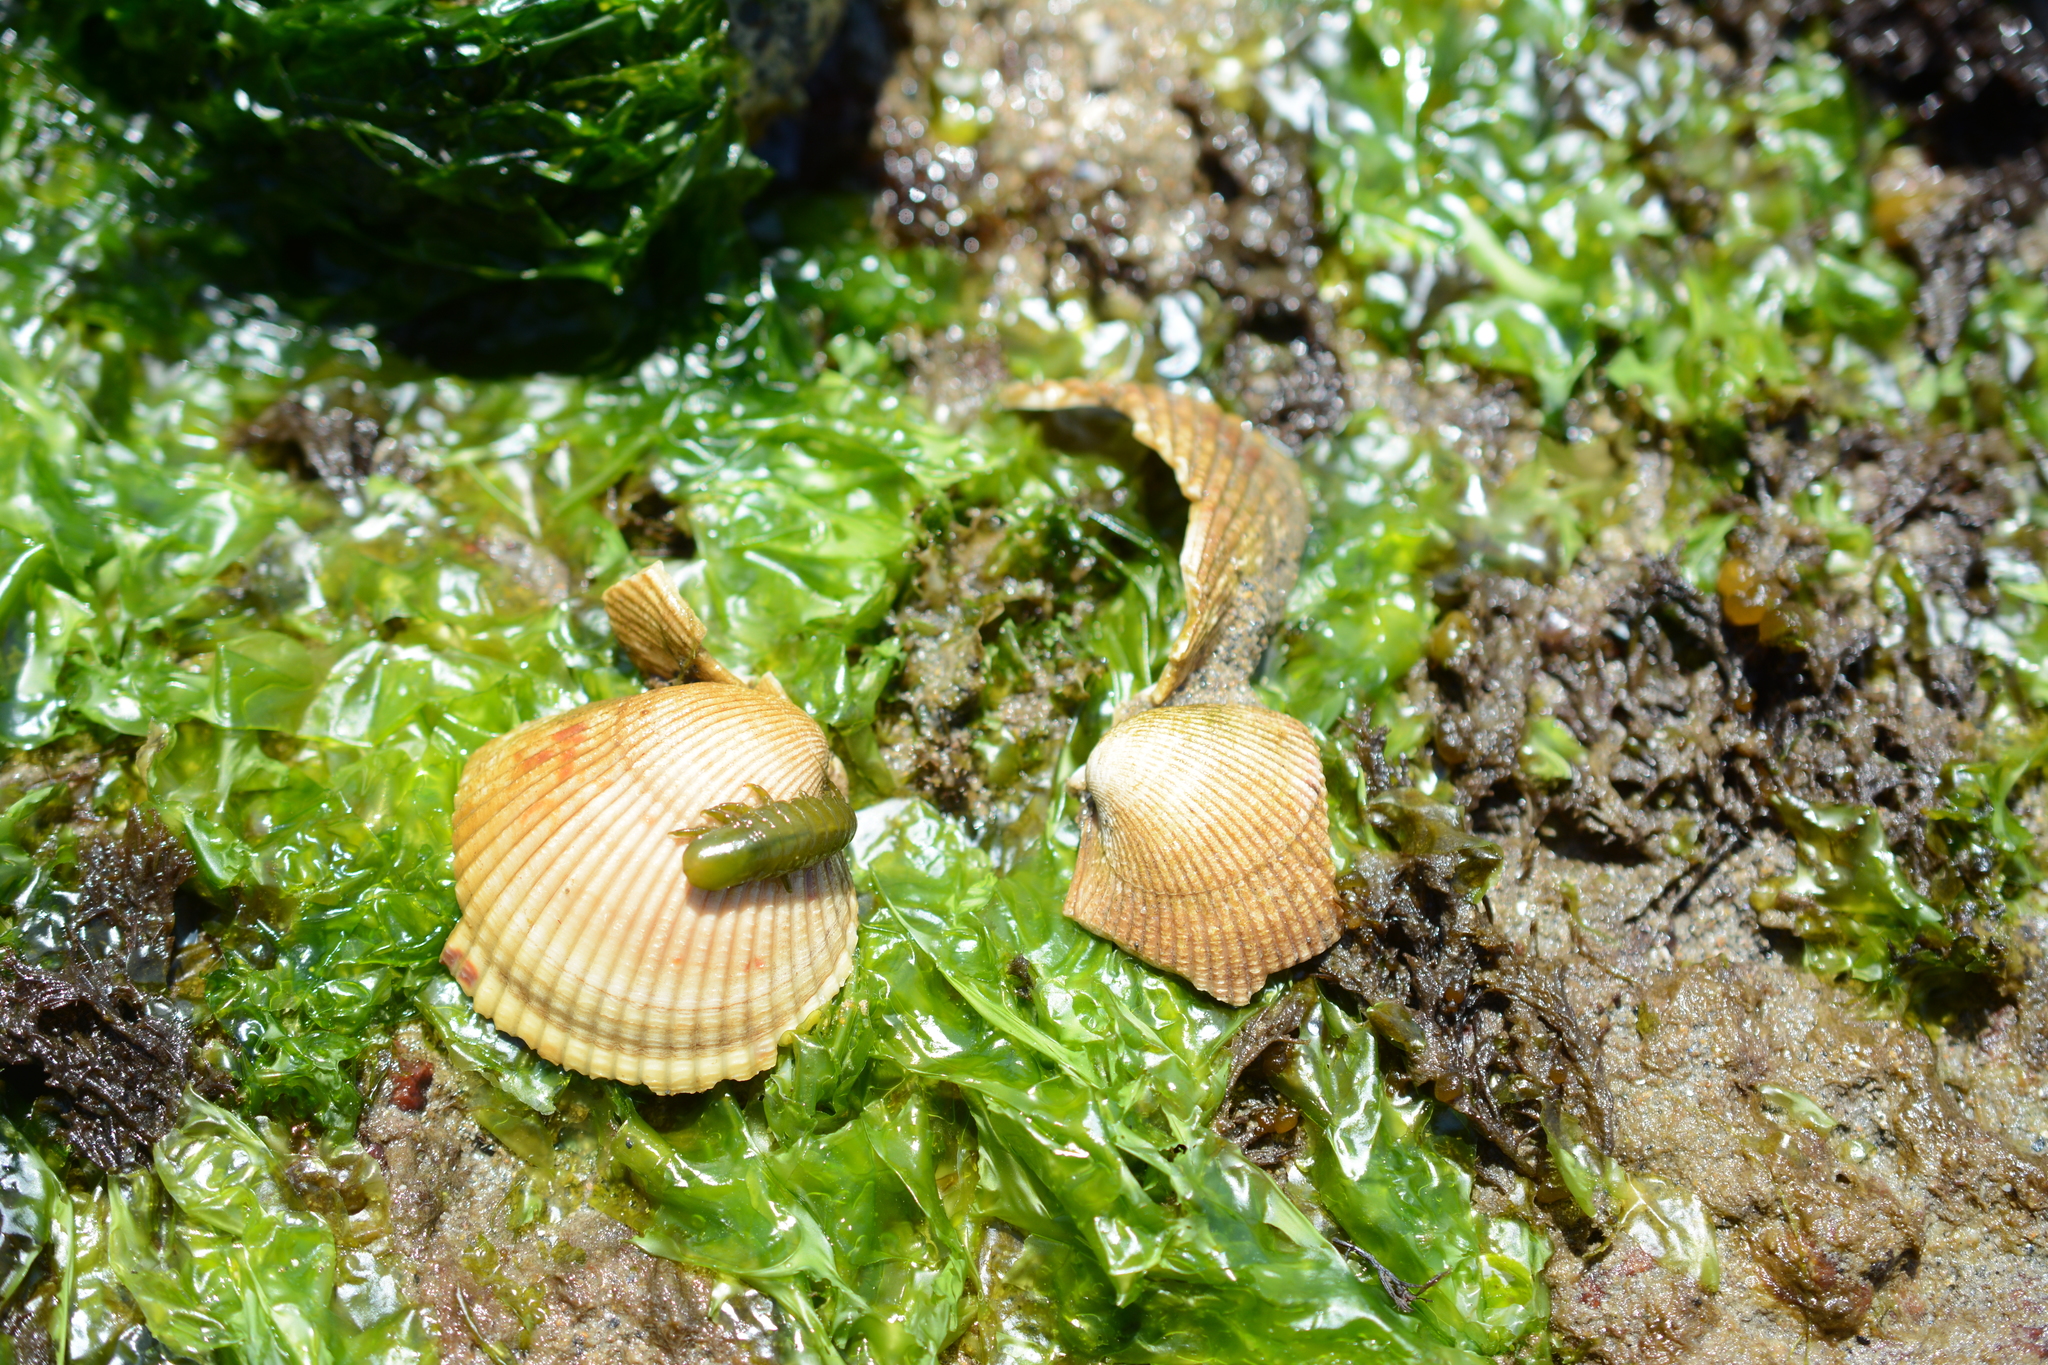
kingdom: Animalia
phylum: Mollusca
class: Bivalvia
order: Cardiida
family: Cardiidae
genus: Clinocardium
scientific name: Clinocardium nuttallii
